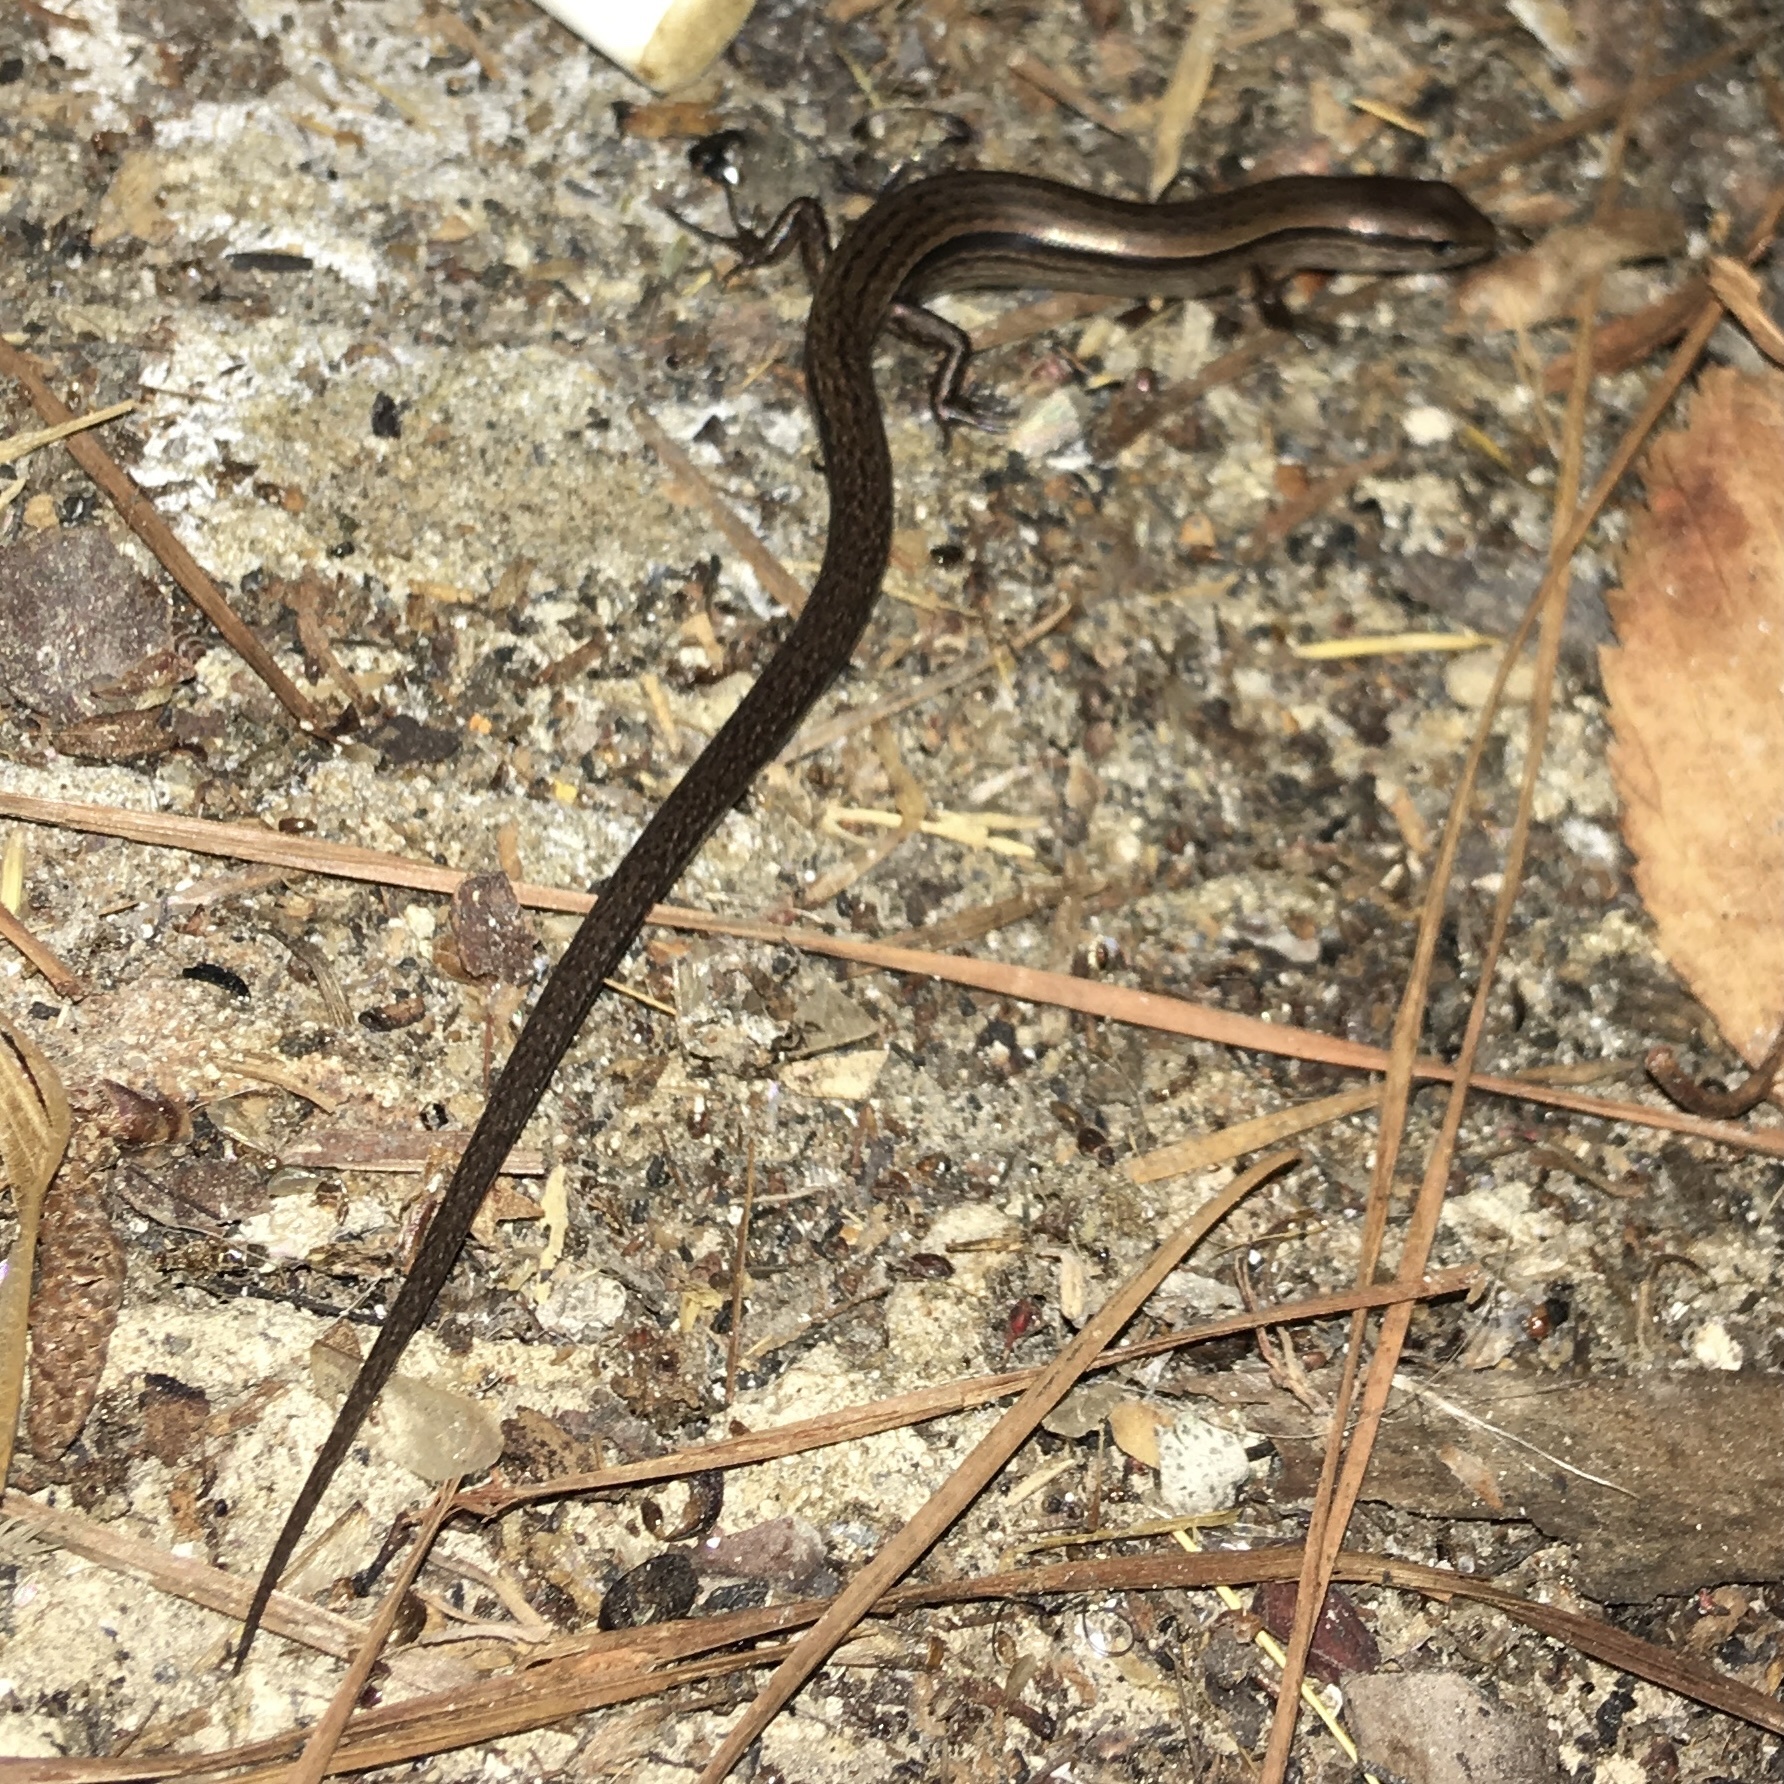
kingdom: Animalia
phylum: Chordata
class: Squamata
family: Scincidae
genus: Scincella
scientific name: Scincella lateralis
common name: Ground skink
